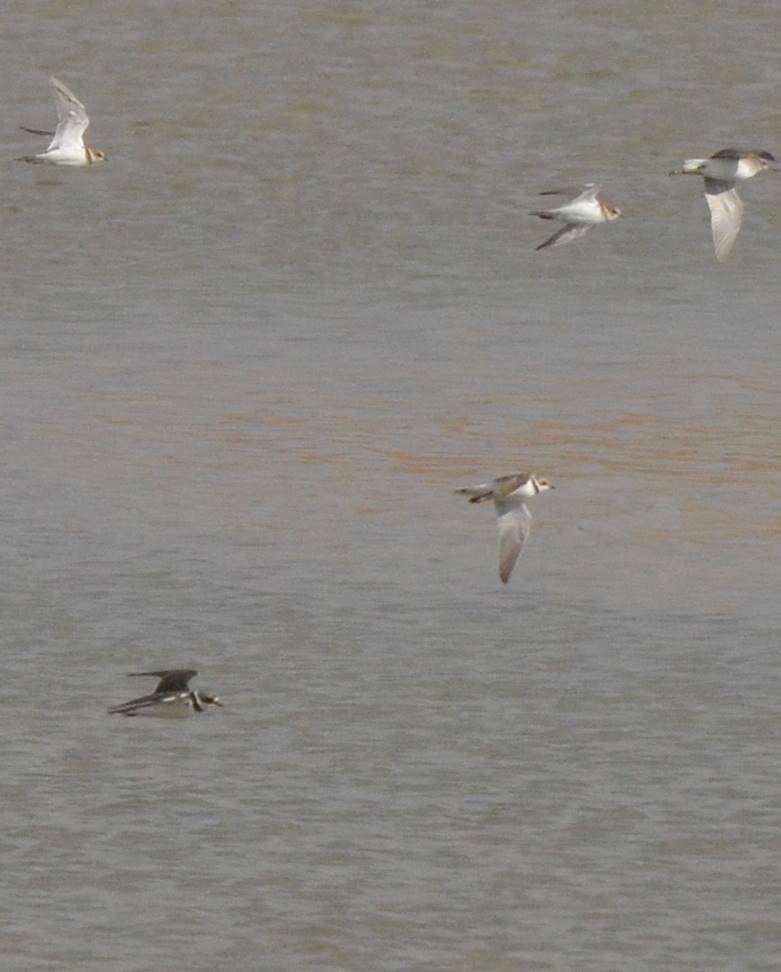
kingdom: Animalia
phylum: Chordata
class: Aves
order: Charadriiformes
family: Charadriidae
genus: Charadrius
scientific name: Charadrius hiaticula
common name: Common ringed plover
